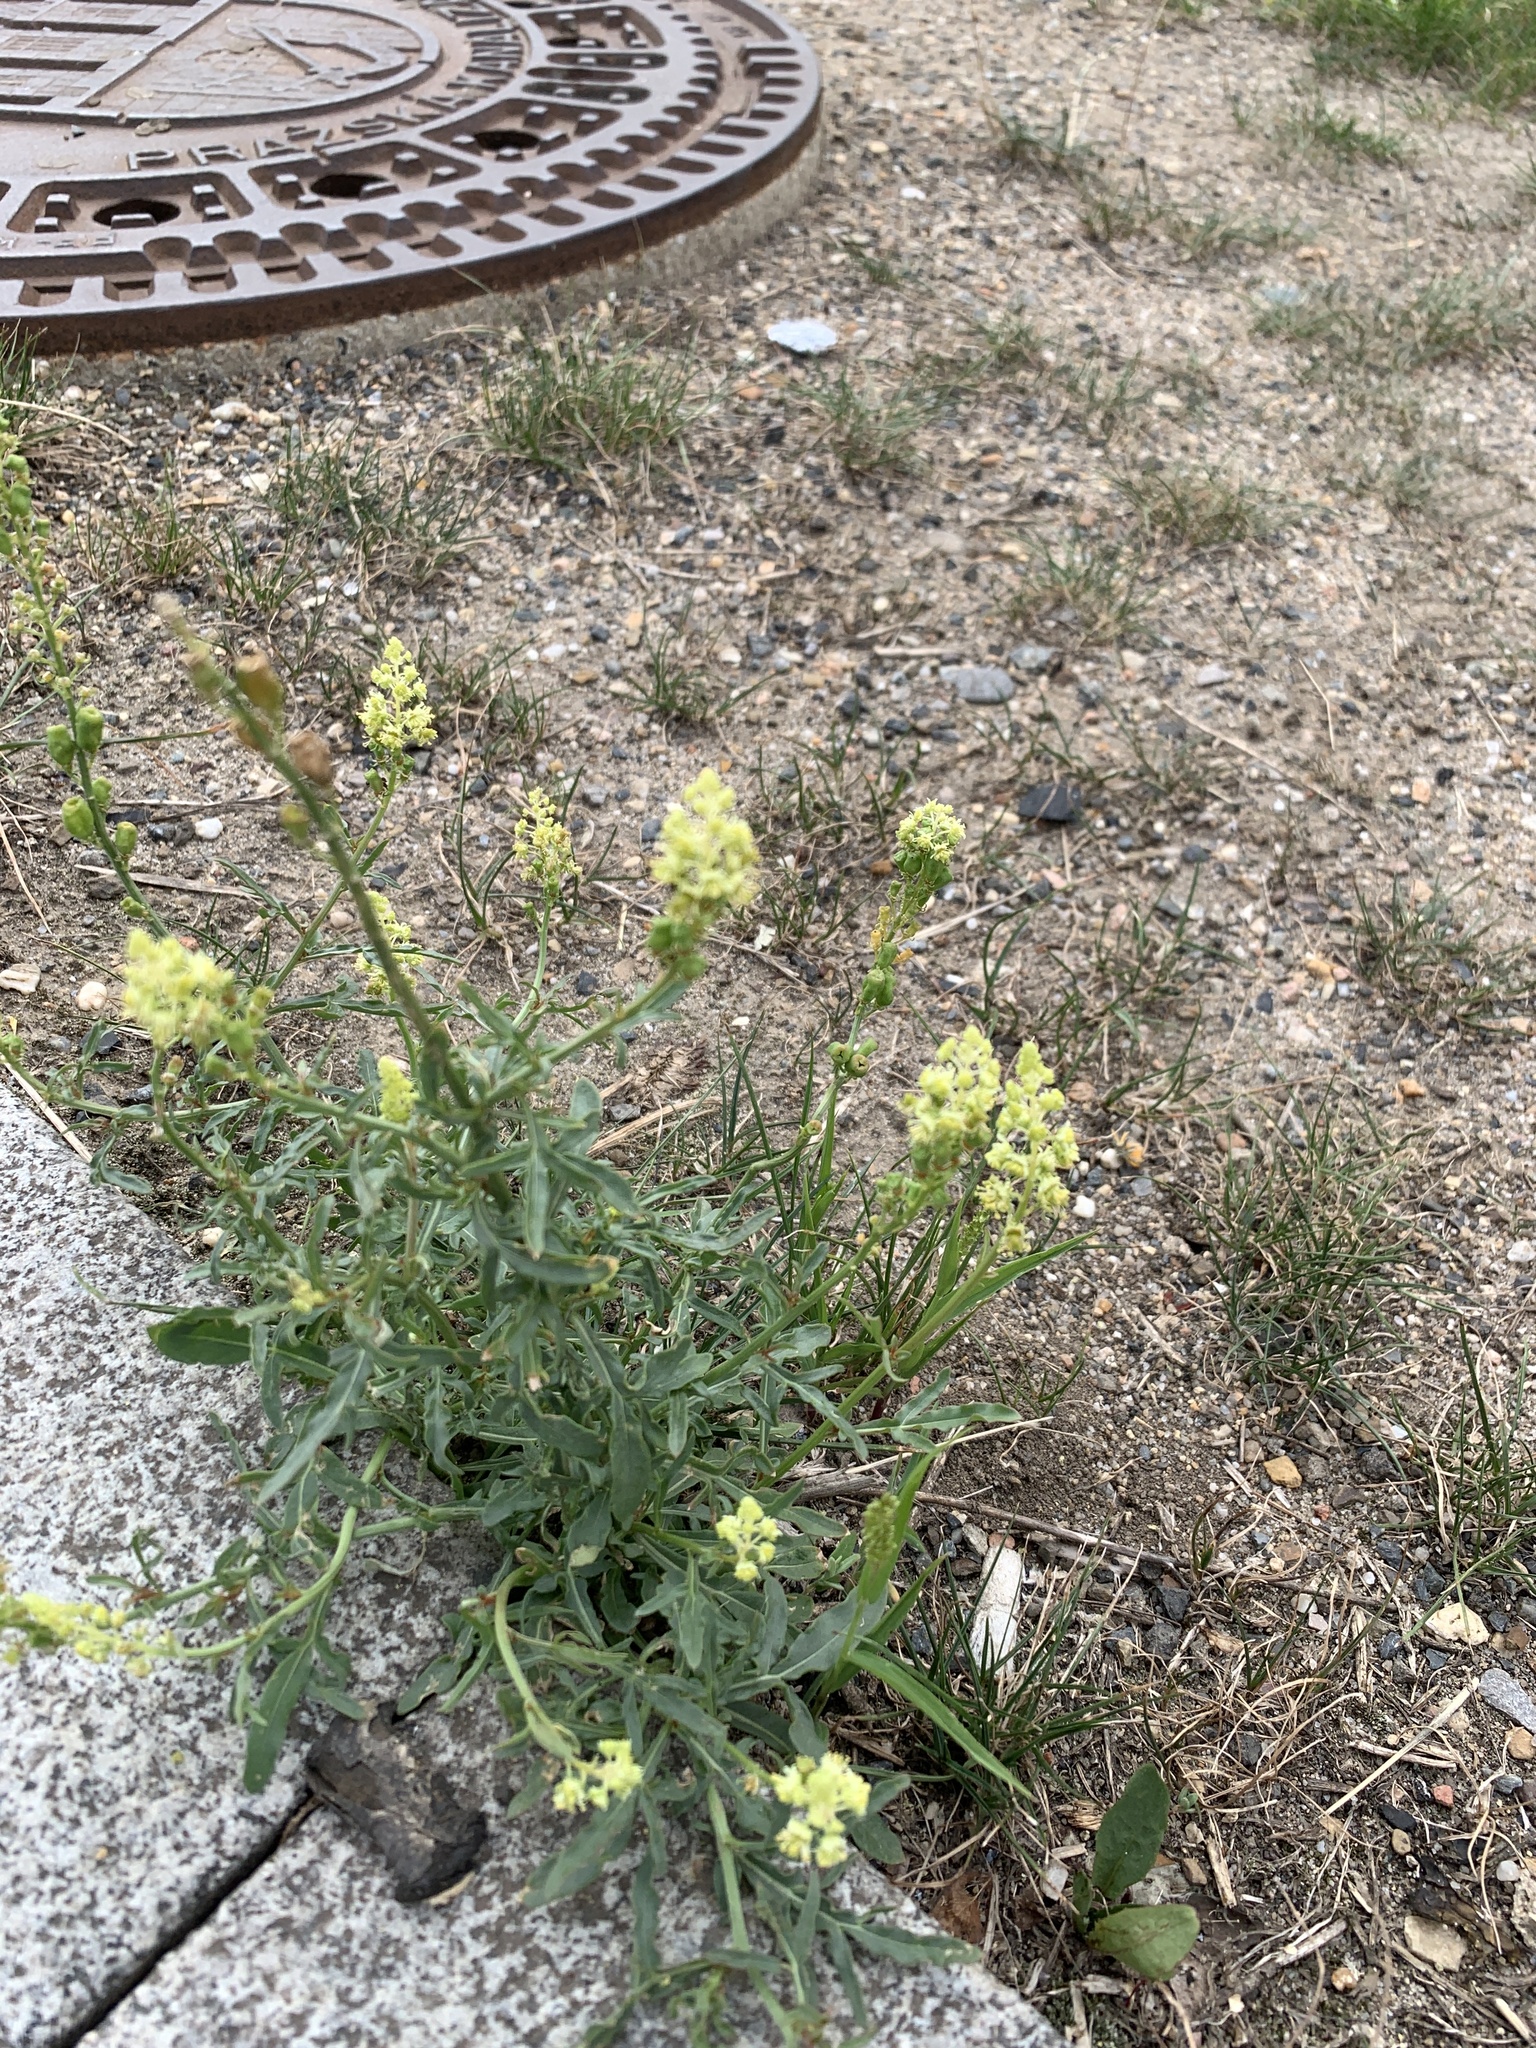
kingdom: Plantae
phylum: Tracheophyta
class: Magnoliopsida
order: Brassicales
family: Resedaceae
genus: Reseda
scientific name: Reseda lutea
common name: Wild mignonette
